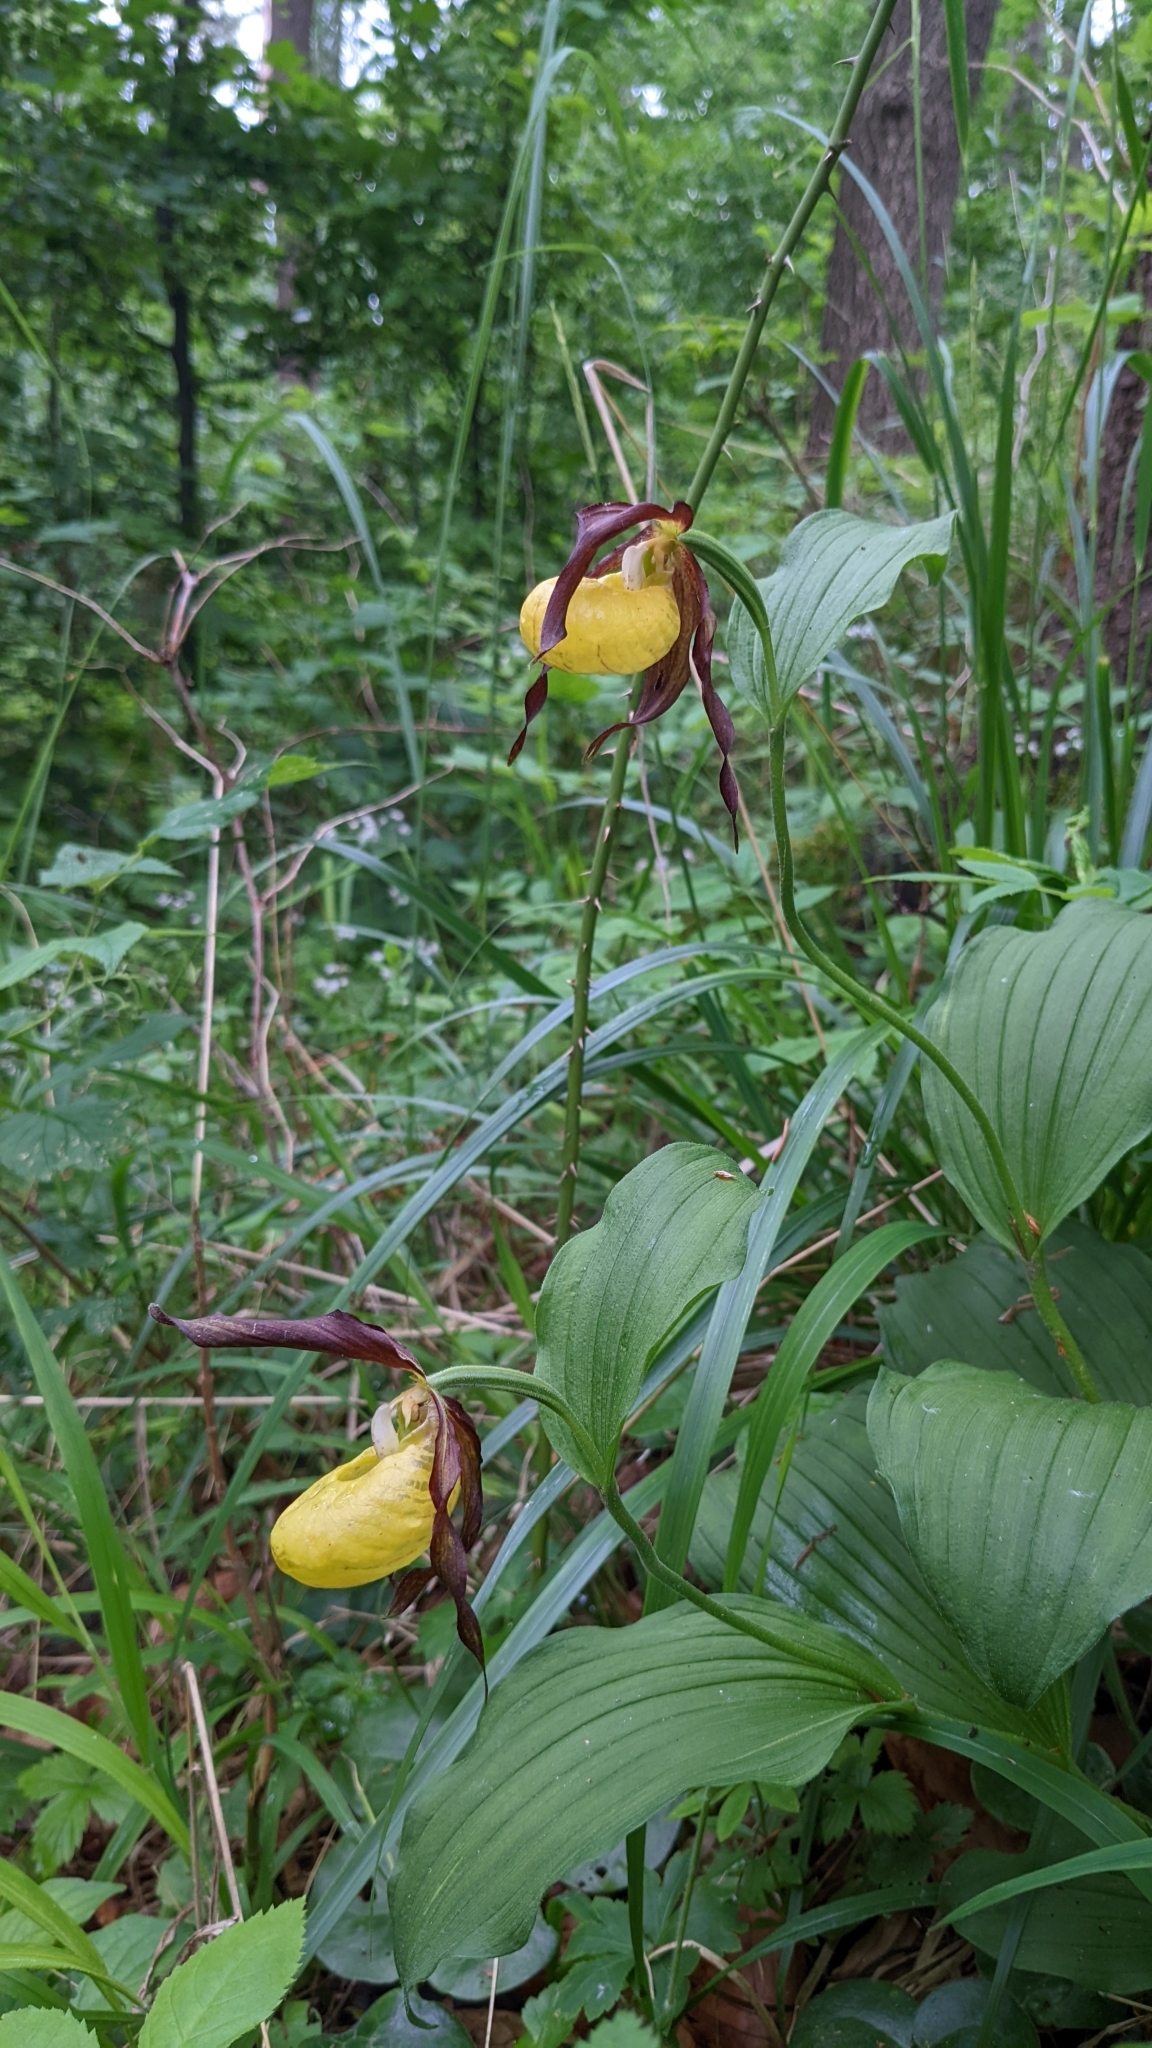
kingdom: Plantae
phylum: Tracheophyta
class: Liliopsida
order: Asparagales
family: Orchidaceae
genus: Cypripedium
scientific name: Cypripedium calceolus
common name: Lady's-slipper
